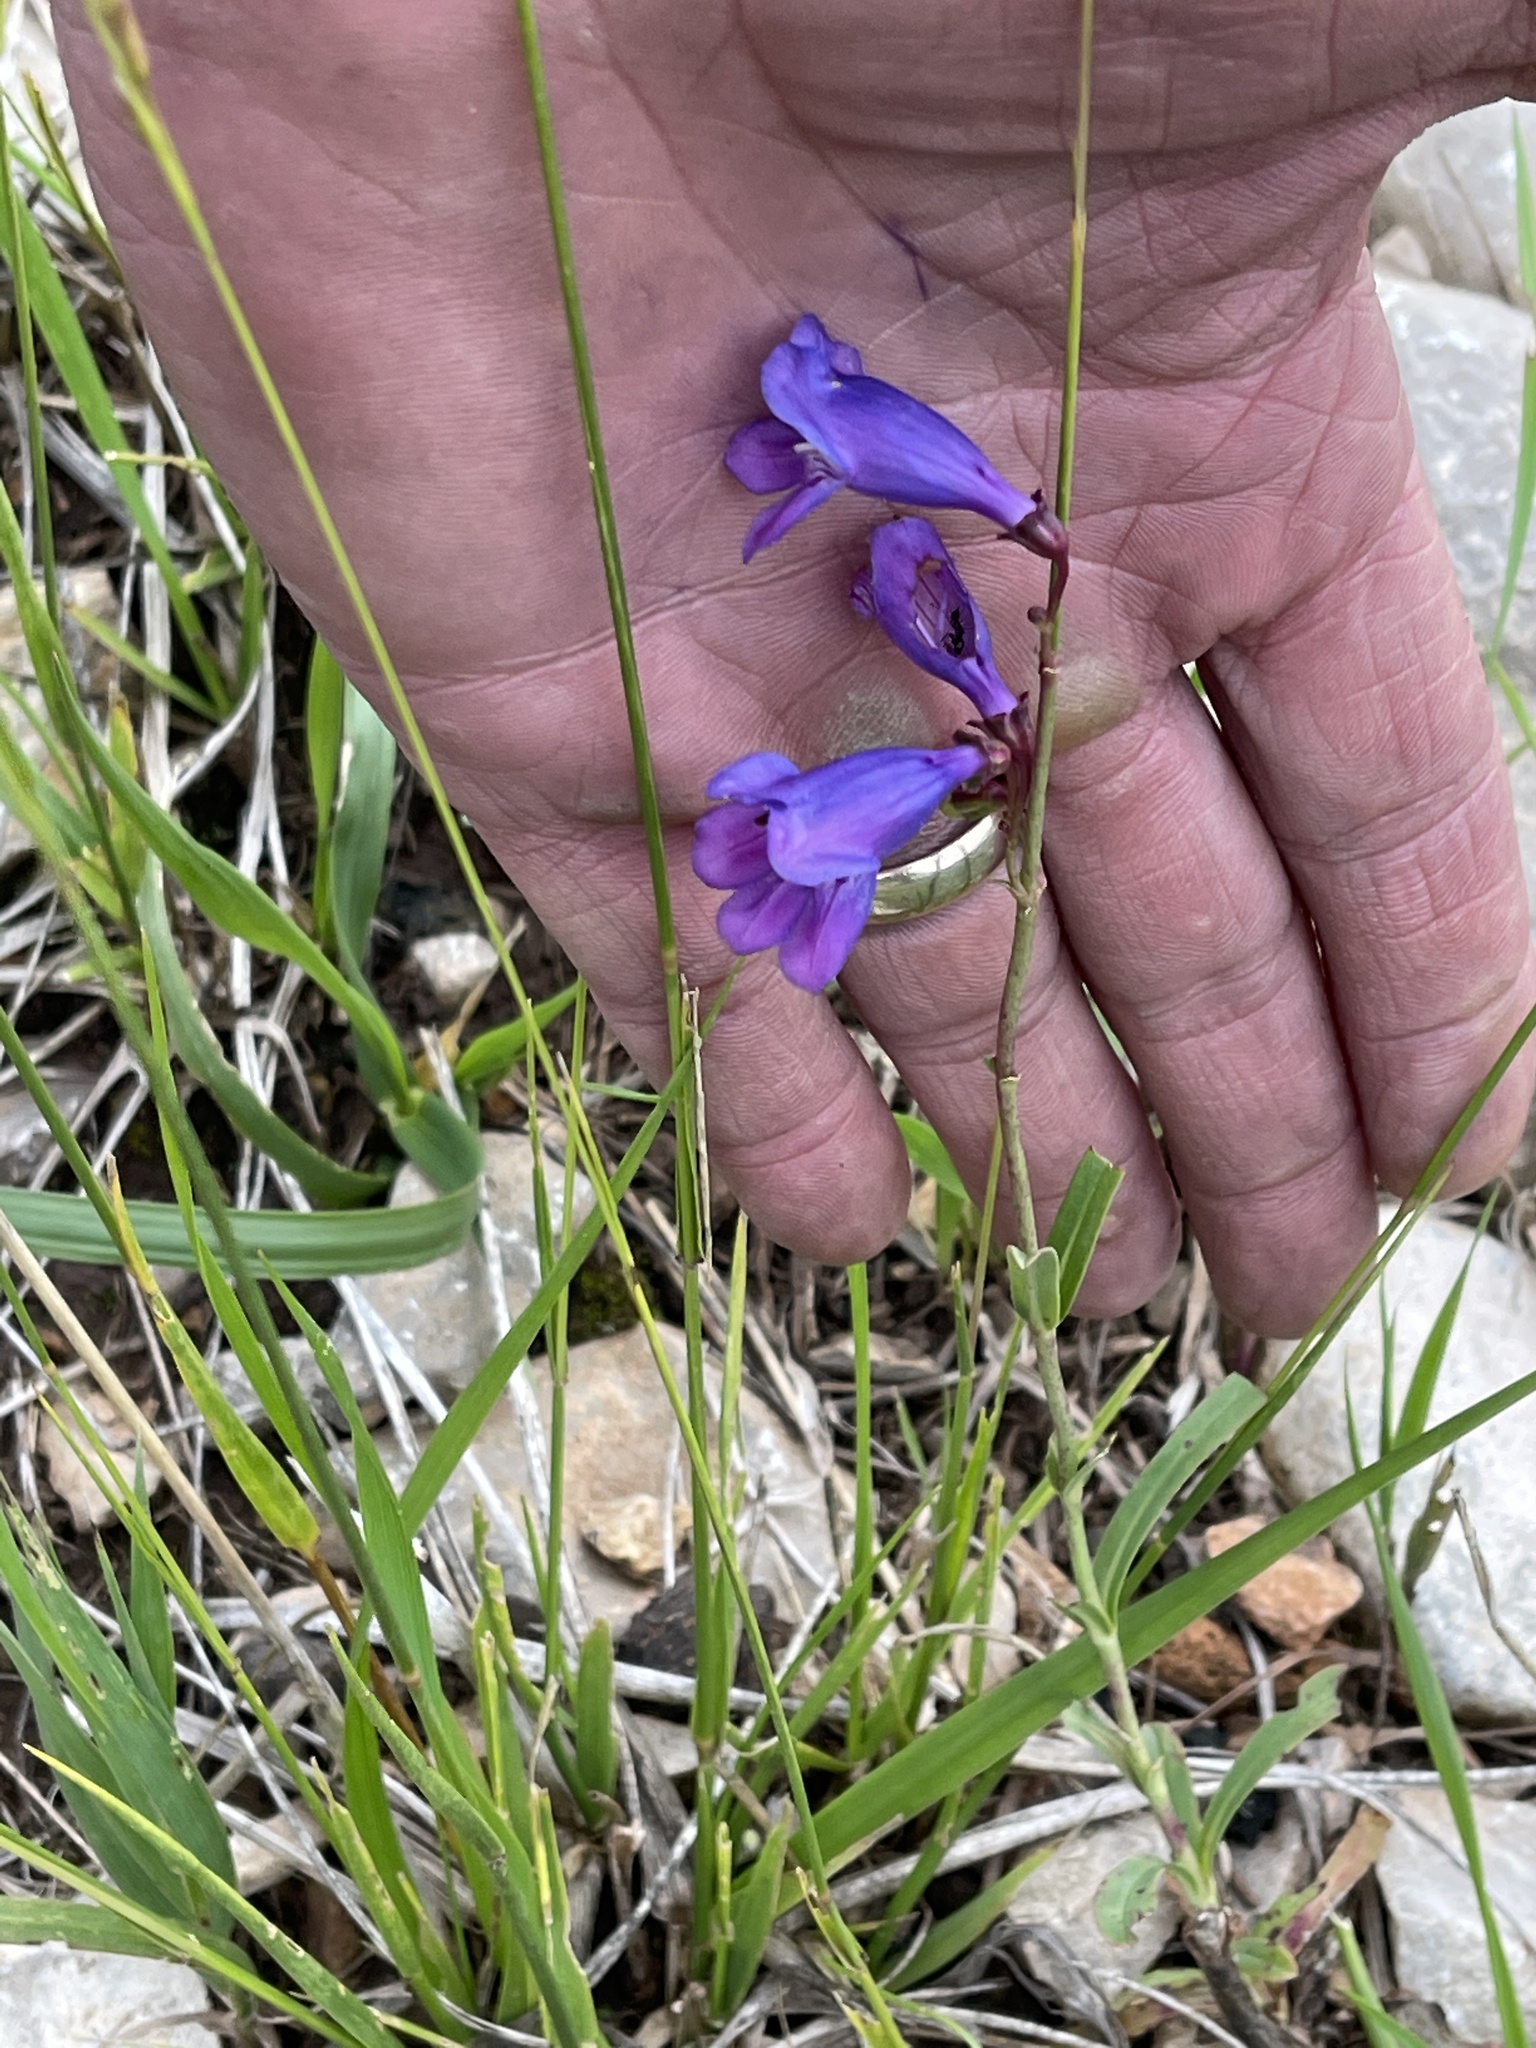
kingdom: Plantae
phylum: Tracheophyta
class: Magnoliopsida
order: Lamiales
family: Plantaginaceae
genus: Penstemon
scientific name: Penstemon neomexicanus
